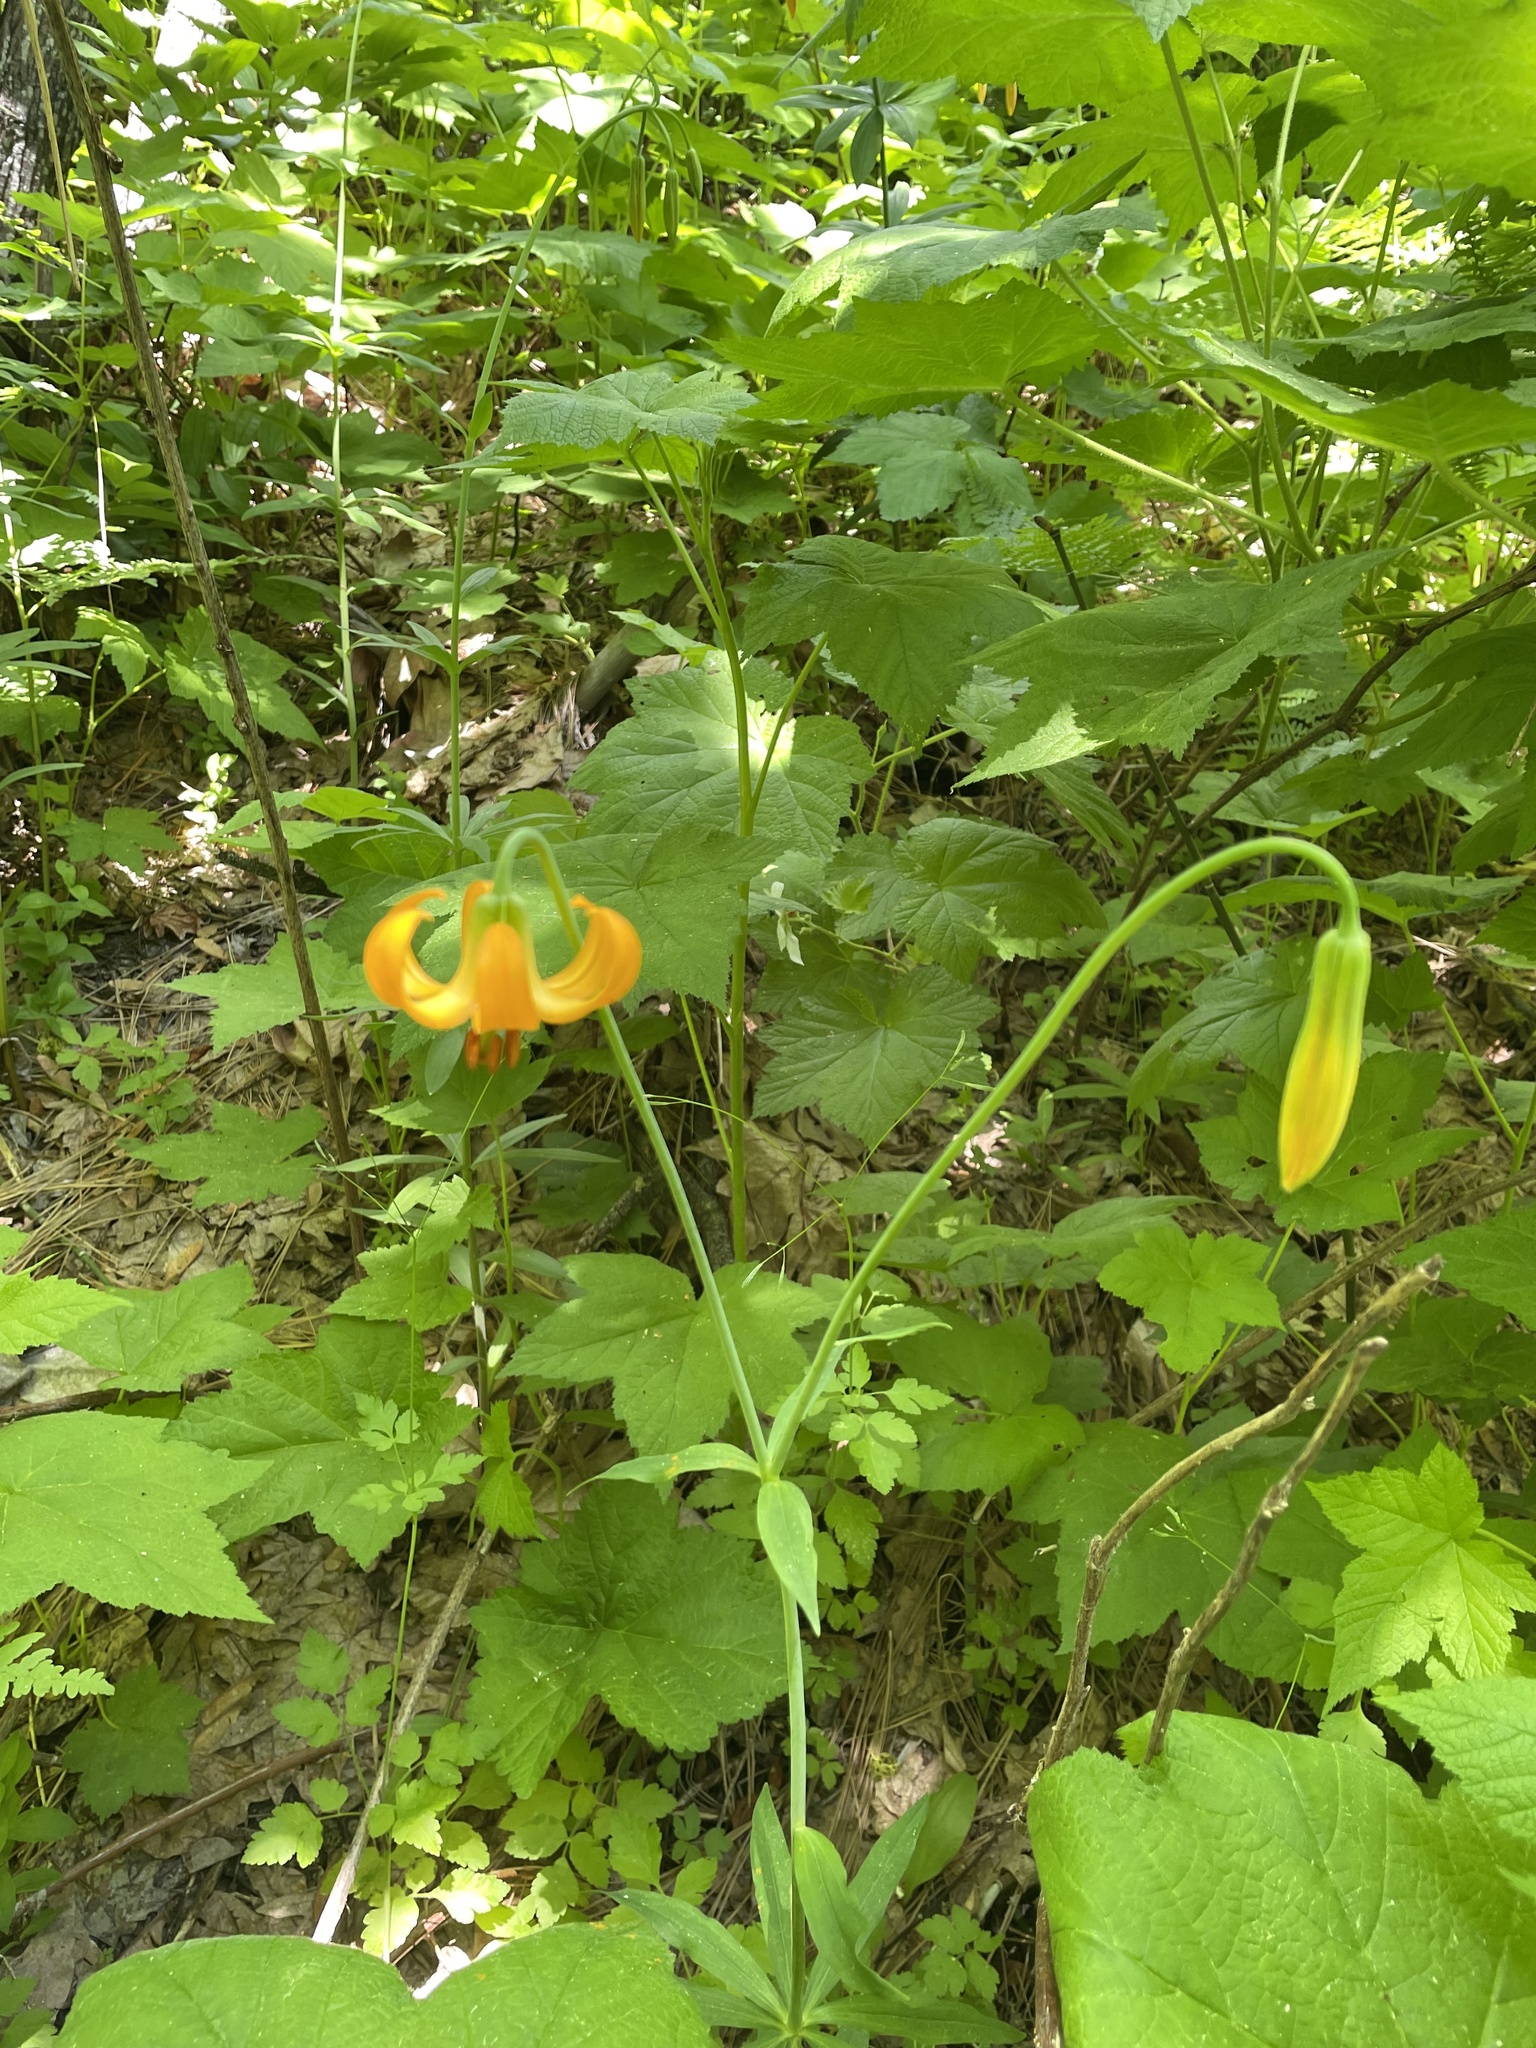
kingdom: Plantae
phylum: Tracheophyta
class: Liliopsida
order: Liliales
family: Liliaceae
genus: Lilium
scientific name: Lilium columbianum
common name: Columbia lily
